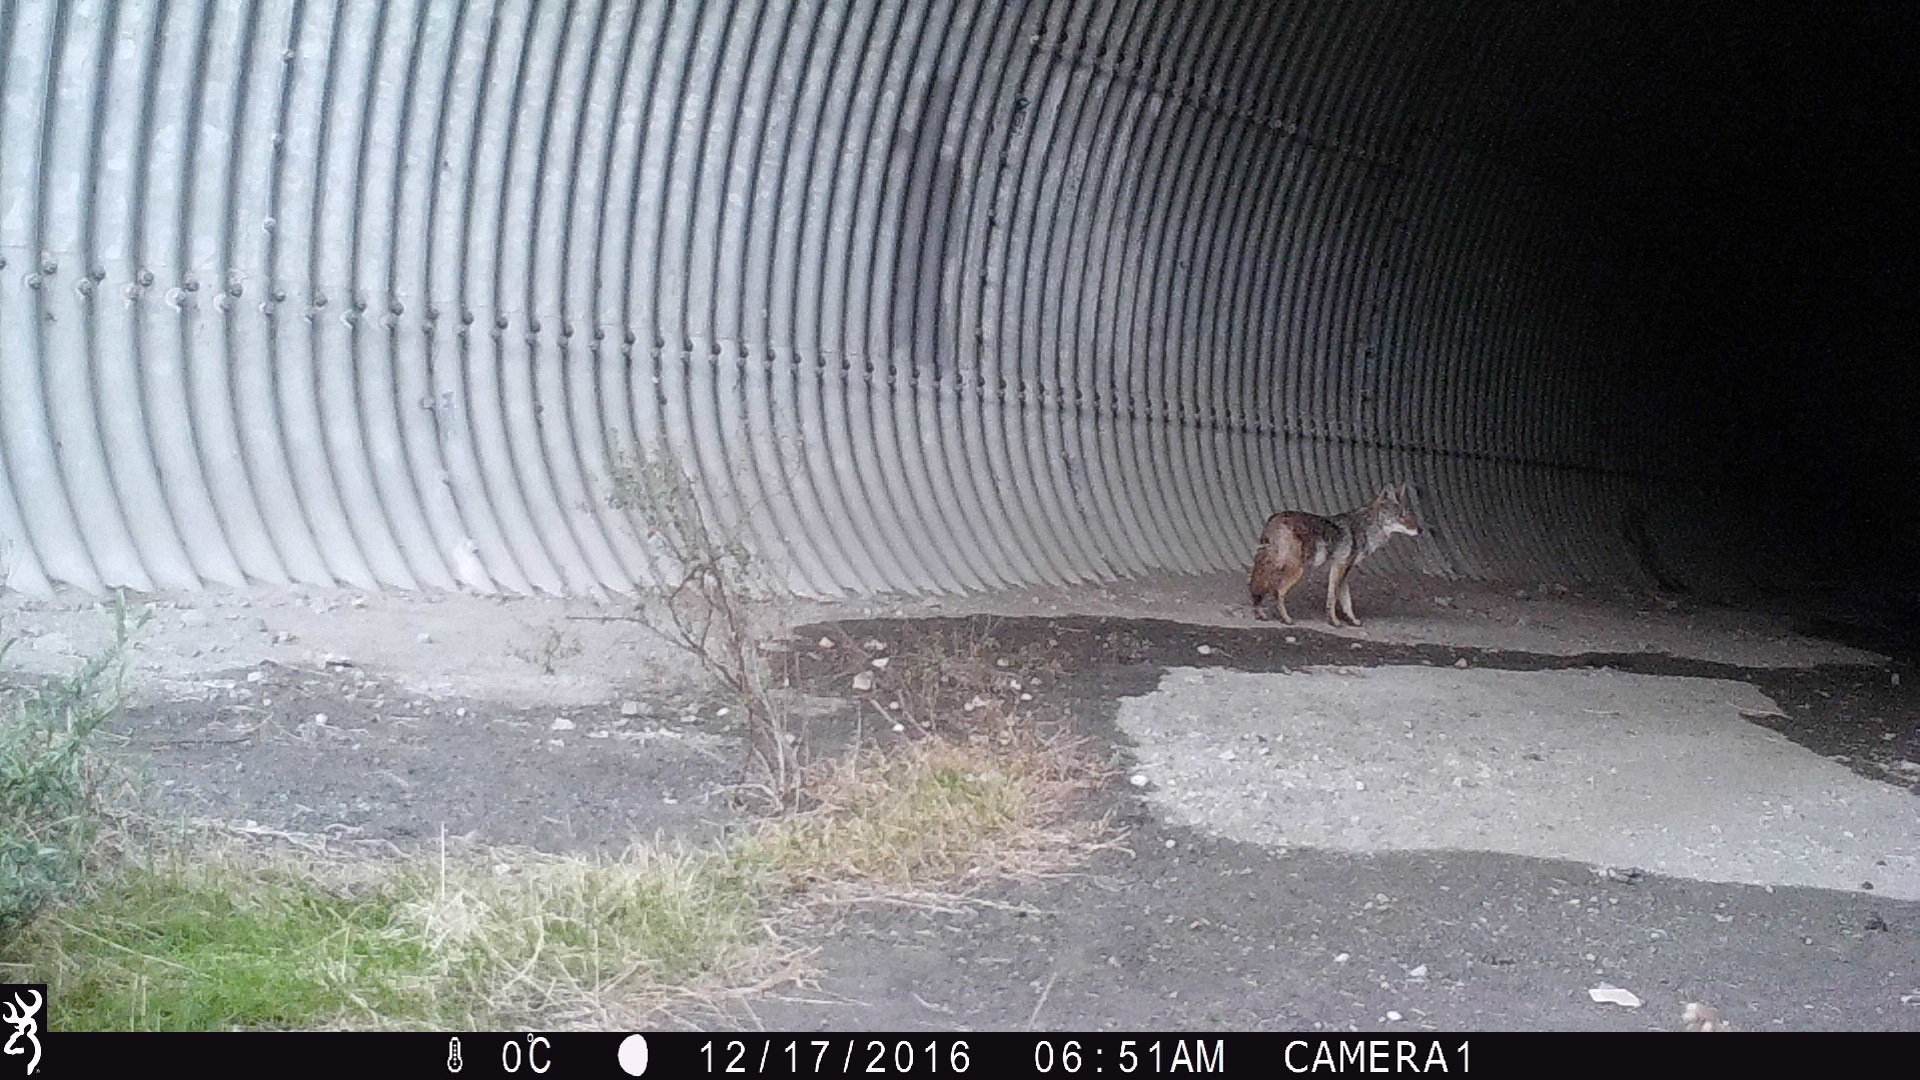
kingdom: Animalia
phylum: Chordata
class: Mammalia
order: Carnivora
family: Canidae
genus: Canis
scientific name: Canis latrans
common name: Coyote
